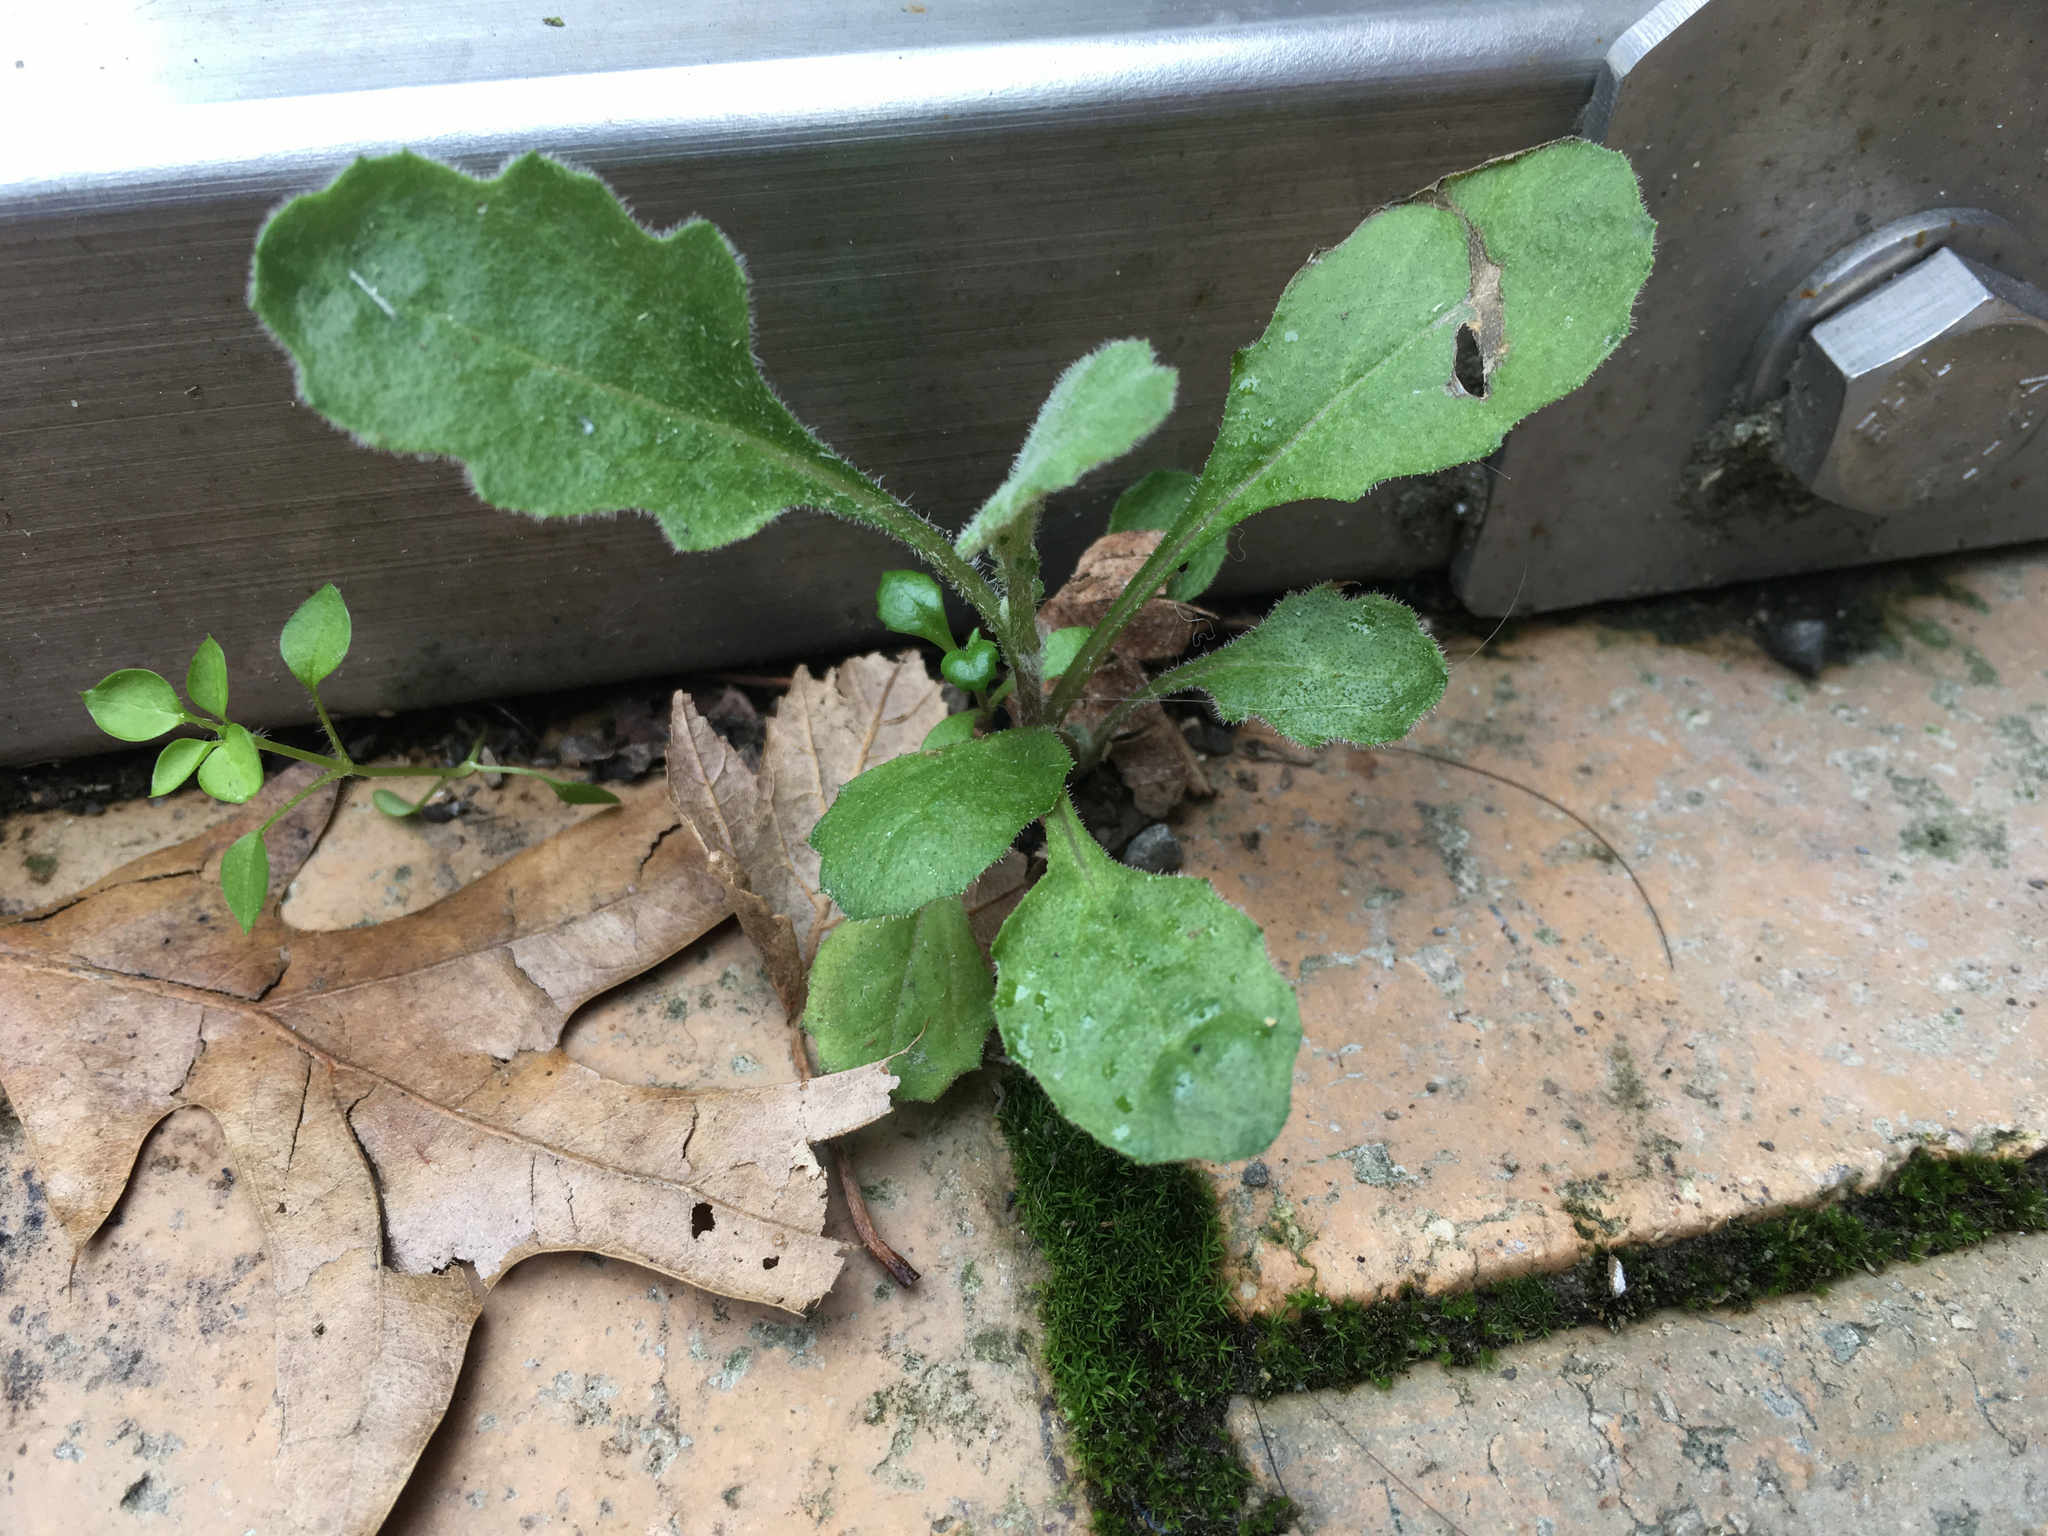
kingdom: Plantae
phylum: Tracheophyta
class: Magnoliopsida
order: Asterales
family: Asteraceae
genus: Senecio
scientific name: Senecio glomeratus
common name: Cutleaf burnweed
